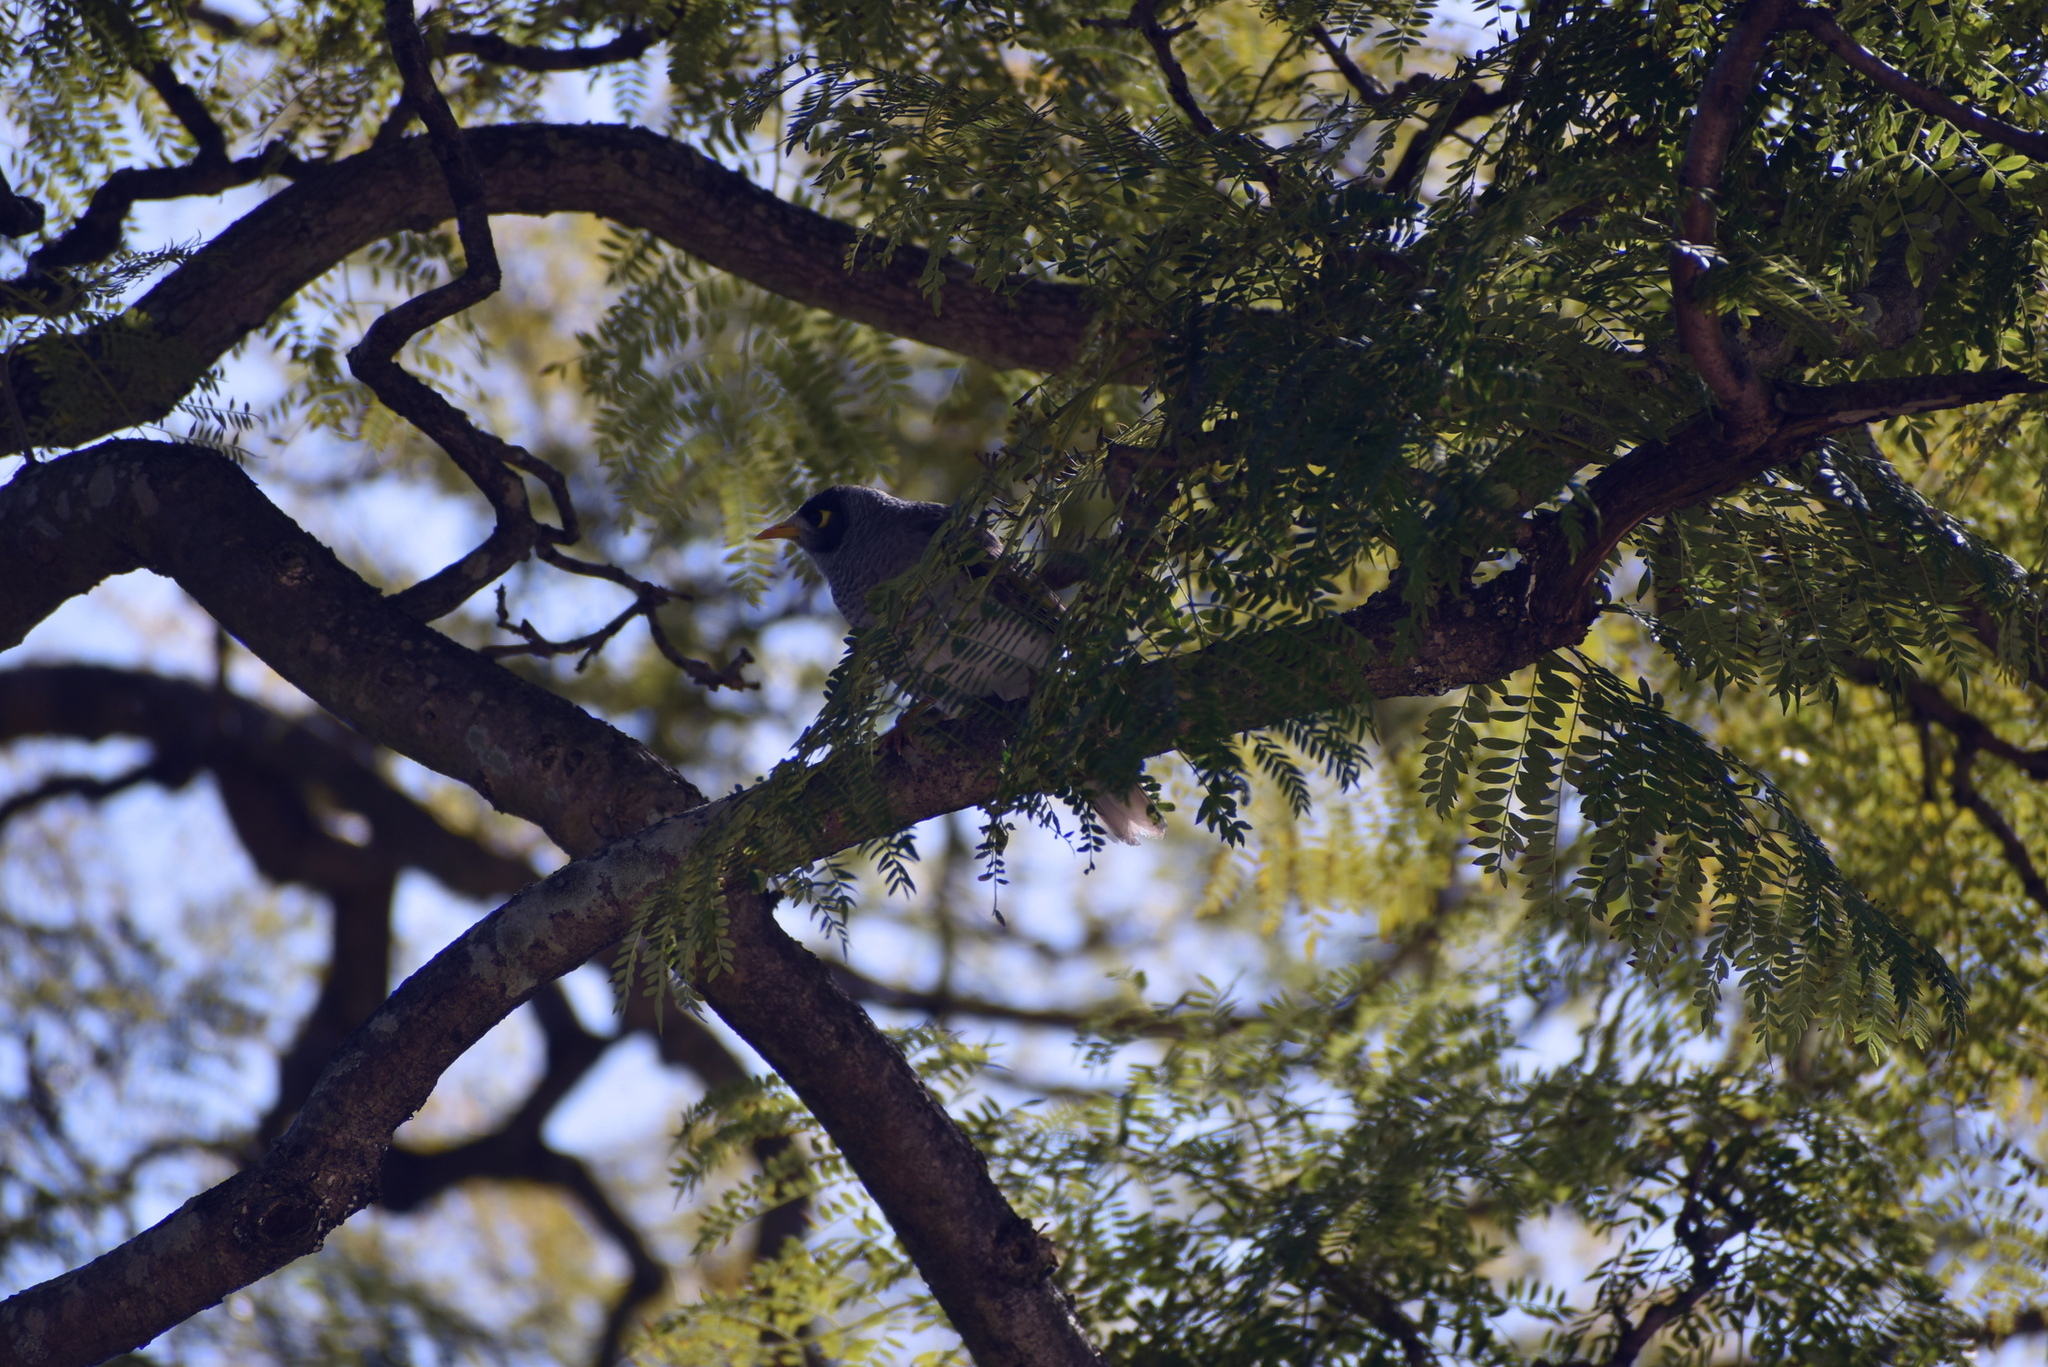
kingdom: Animalia
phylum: Chordata
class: Aves
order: Passeriformes
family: Meliphagidae
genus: Manorina
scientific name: Manorina melanocephala
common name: Noisy miner
